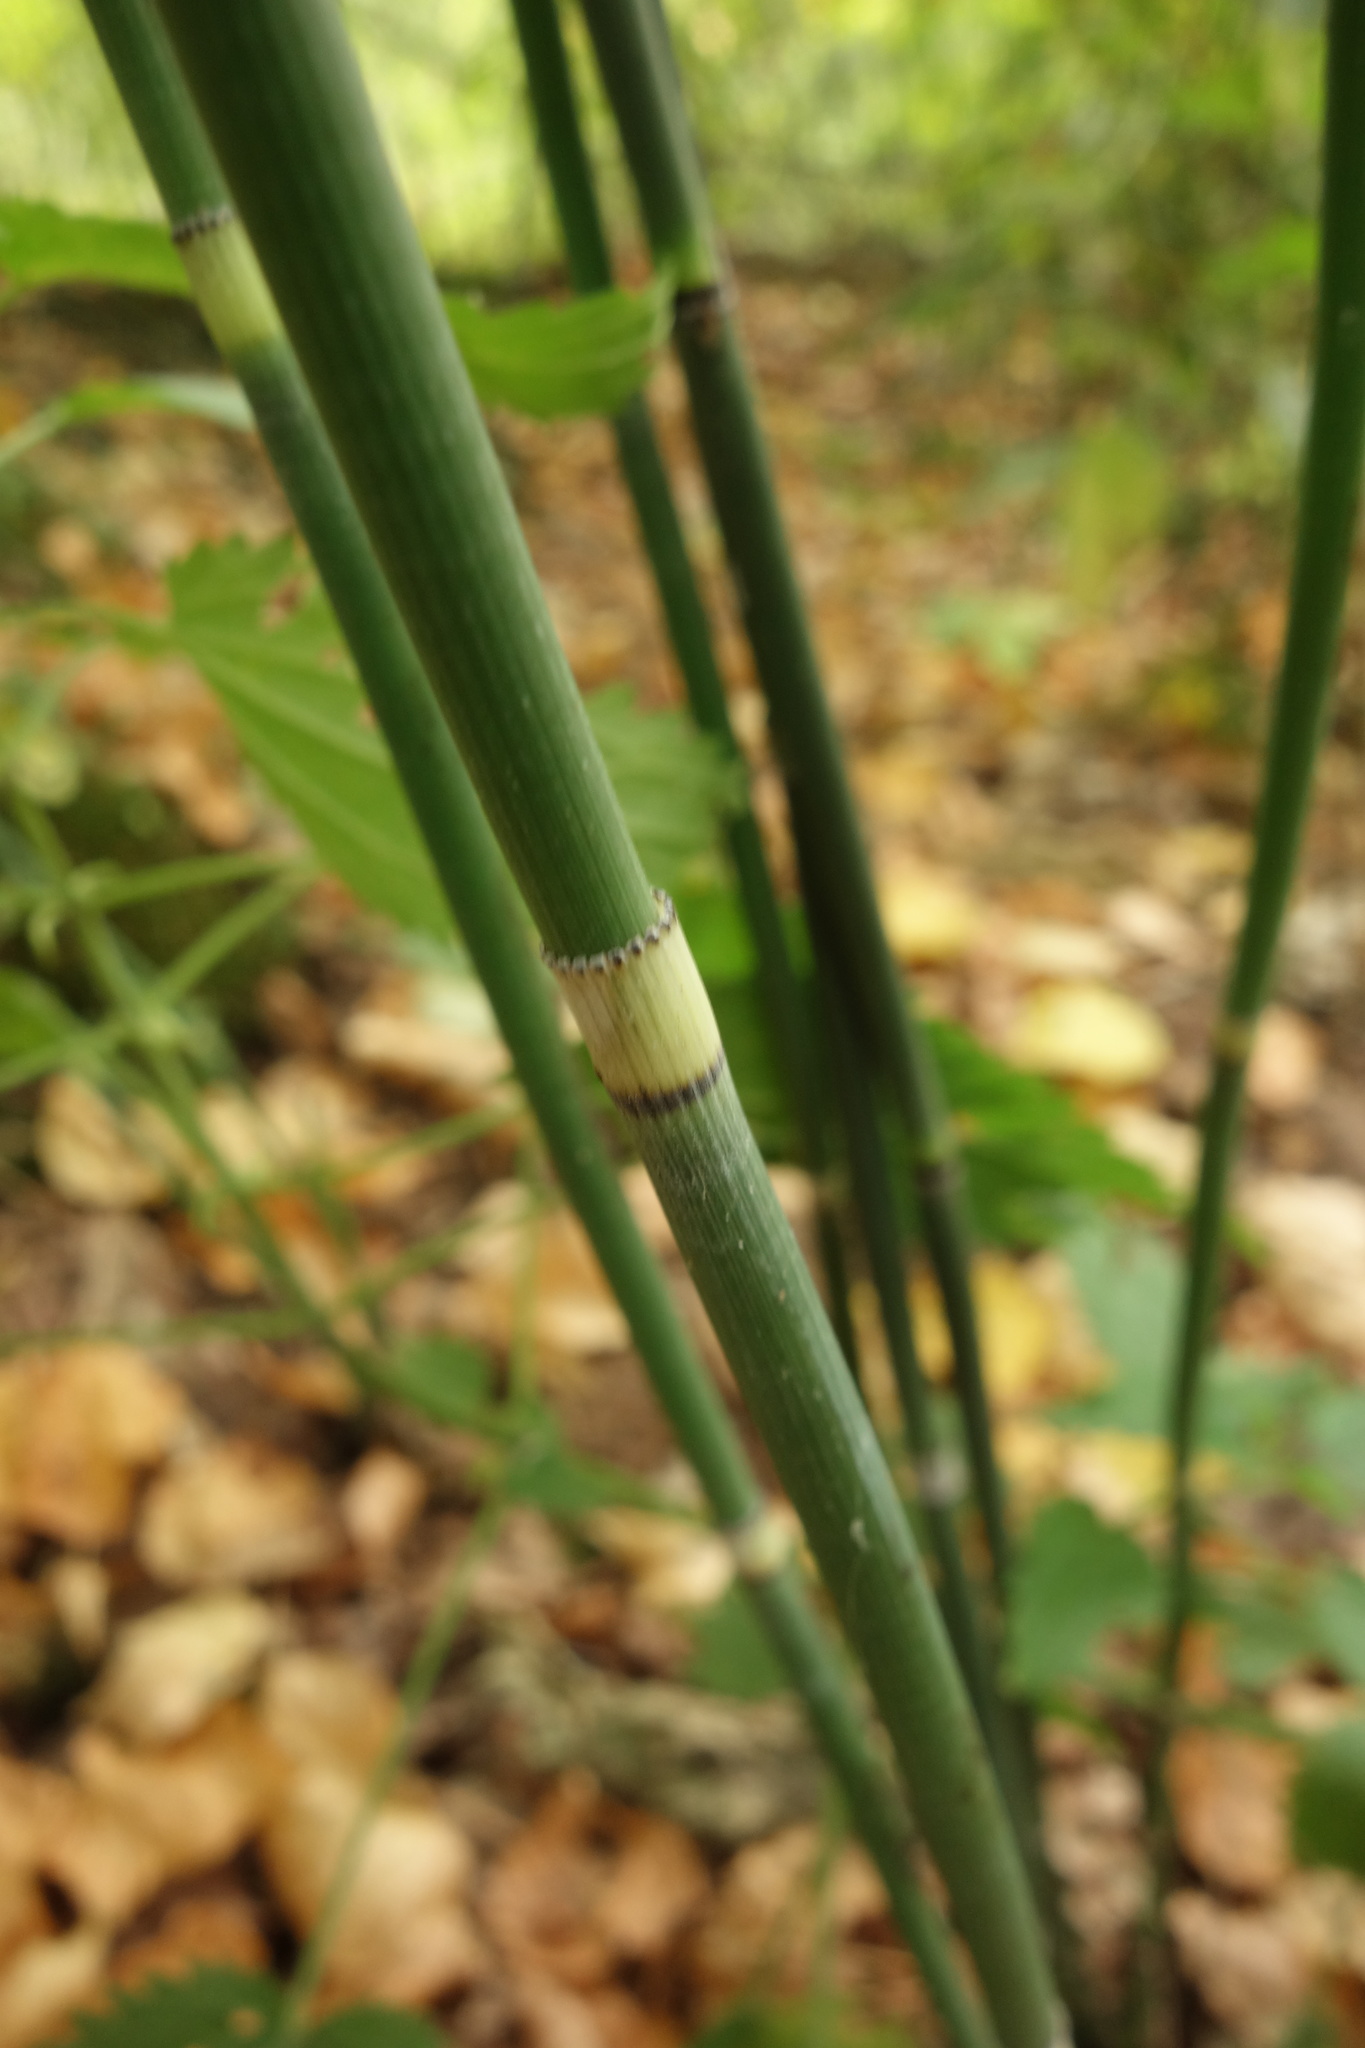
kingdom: Plantae
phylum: Tracheophyta
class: Polypodiopsida
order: Equisetales
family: Equisetaceae
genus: Equisetum
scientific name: Equisetum hyemale
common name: Rough horsetail
